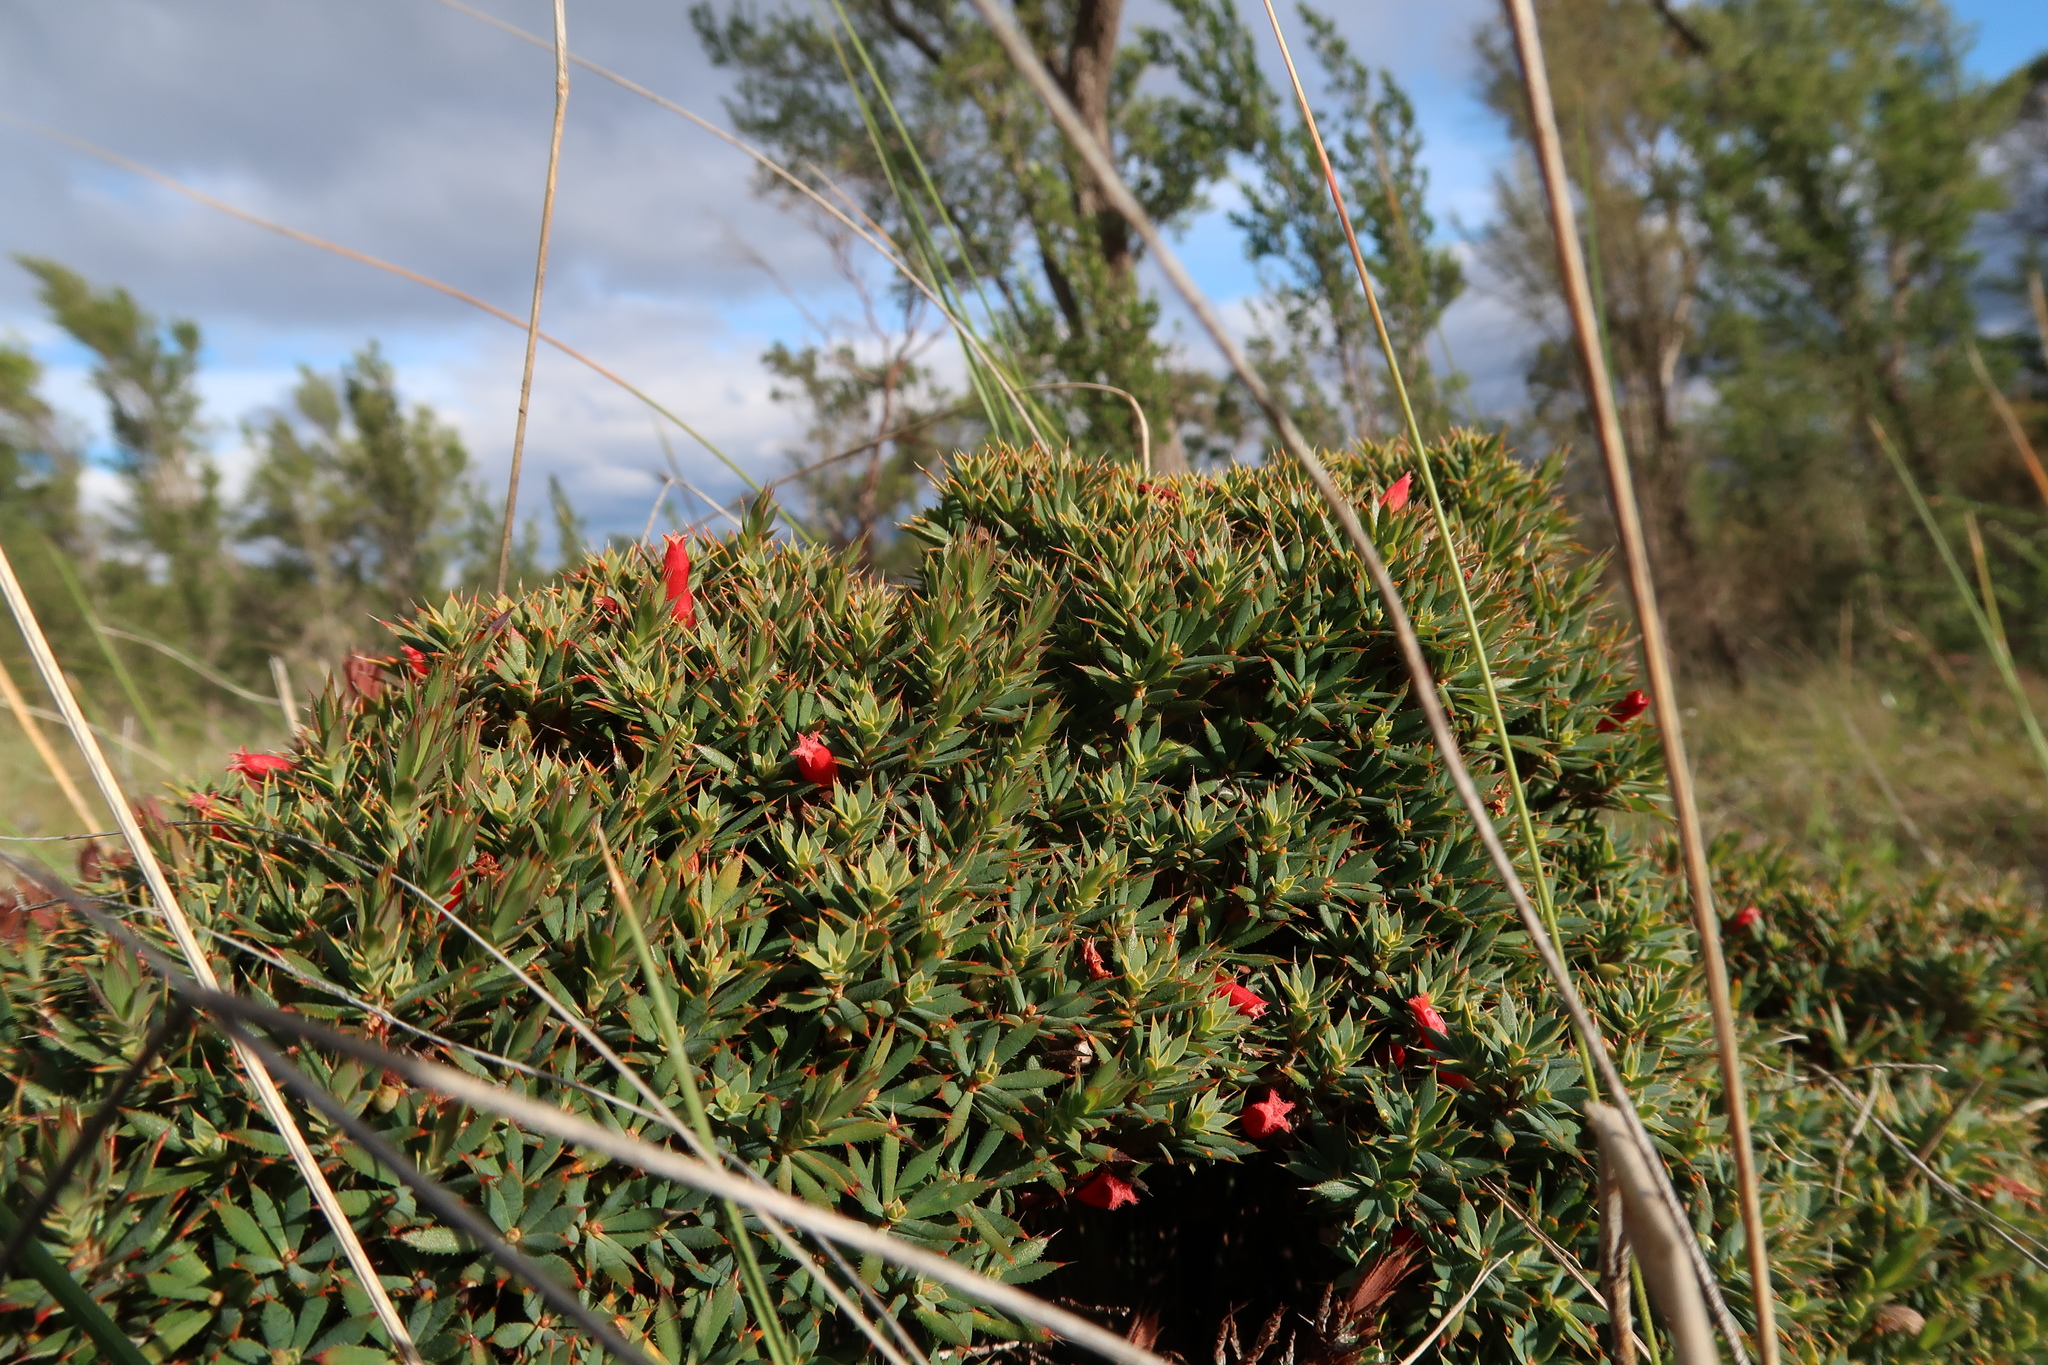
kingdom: Plantae
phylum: Tracheophyta
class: Magnoliopsida
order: Ericales
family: Ericaceae
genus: Styphelia
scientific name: Styphelia humifusa
